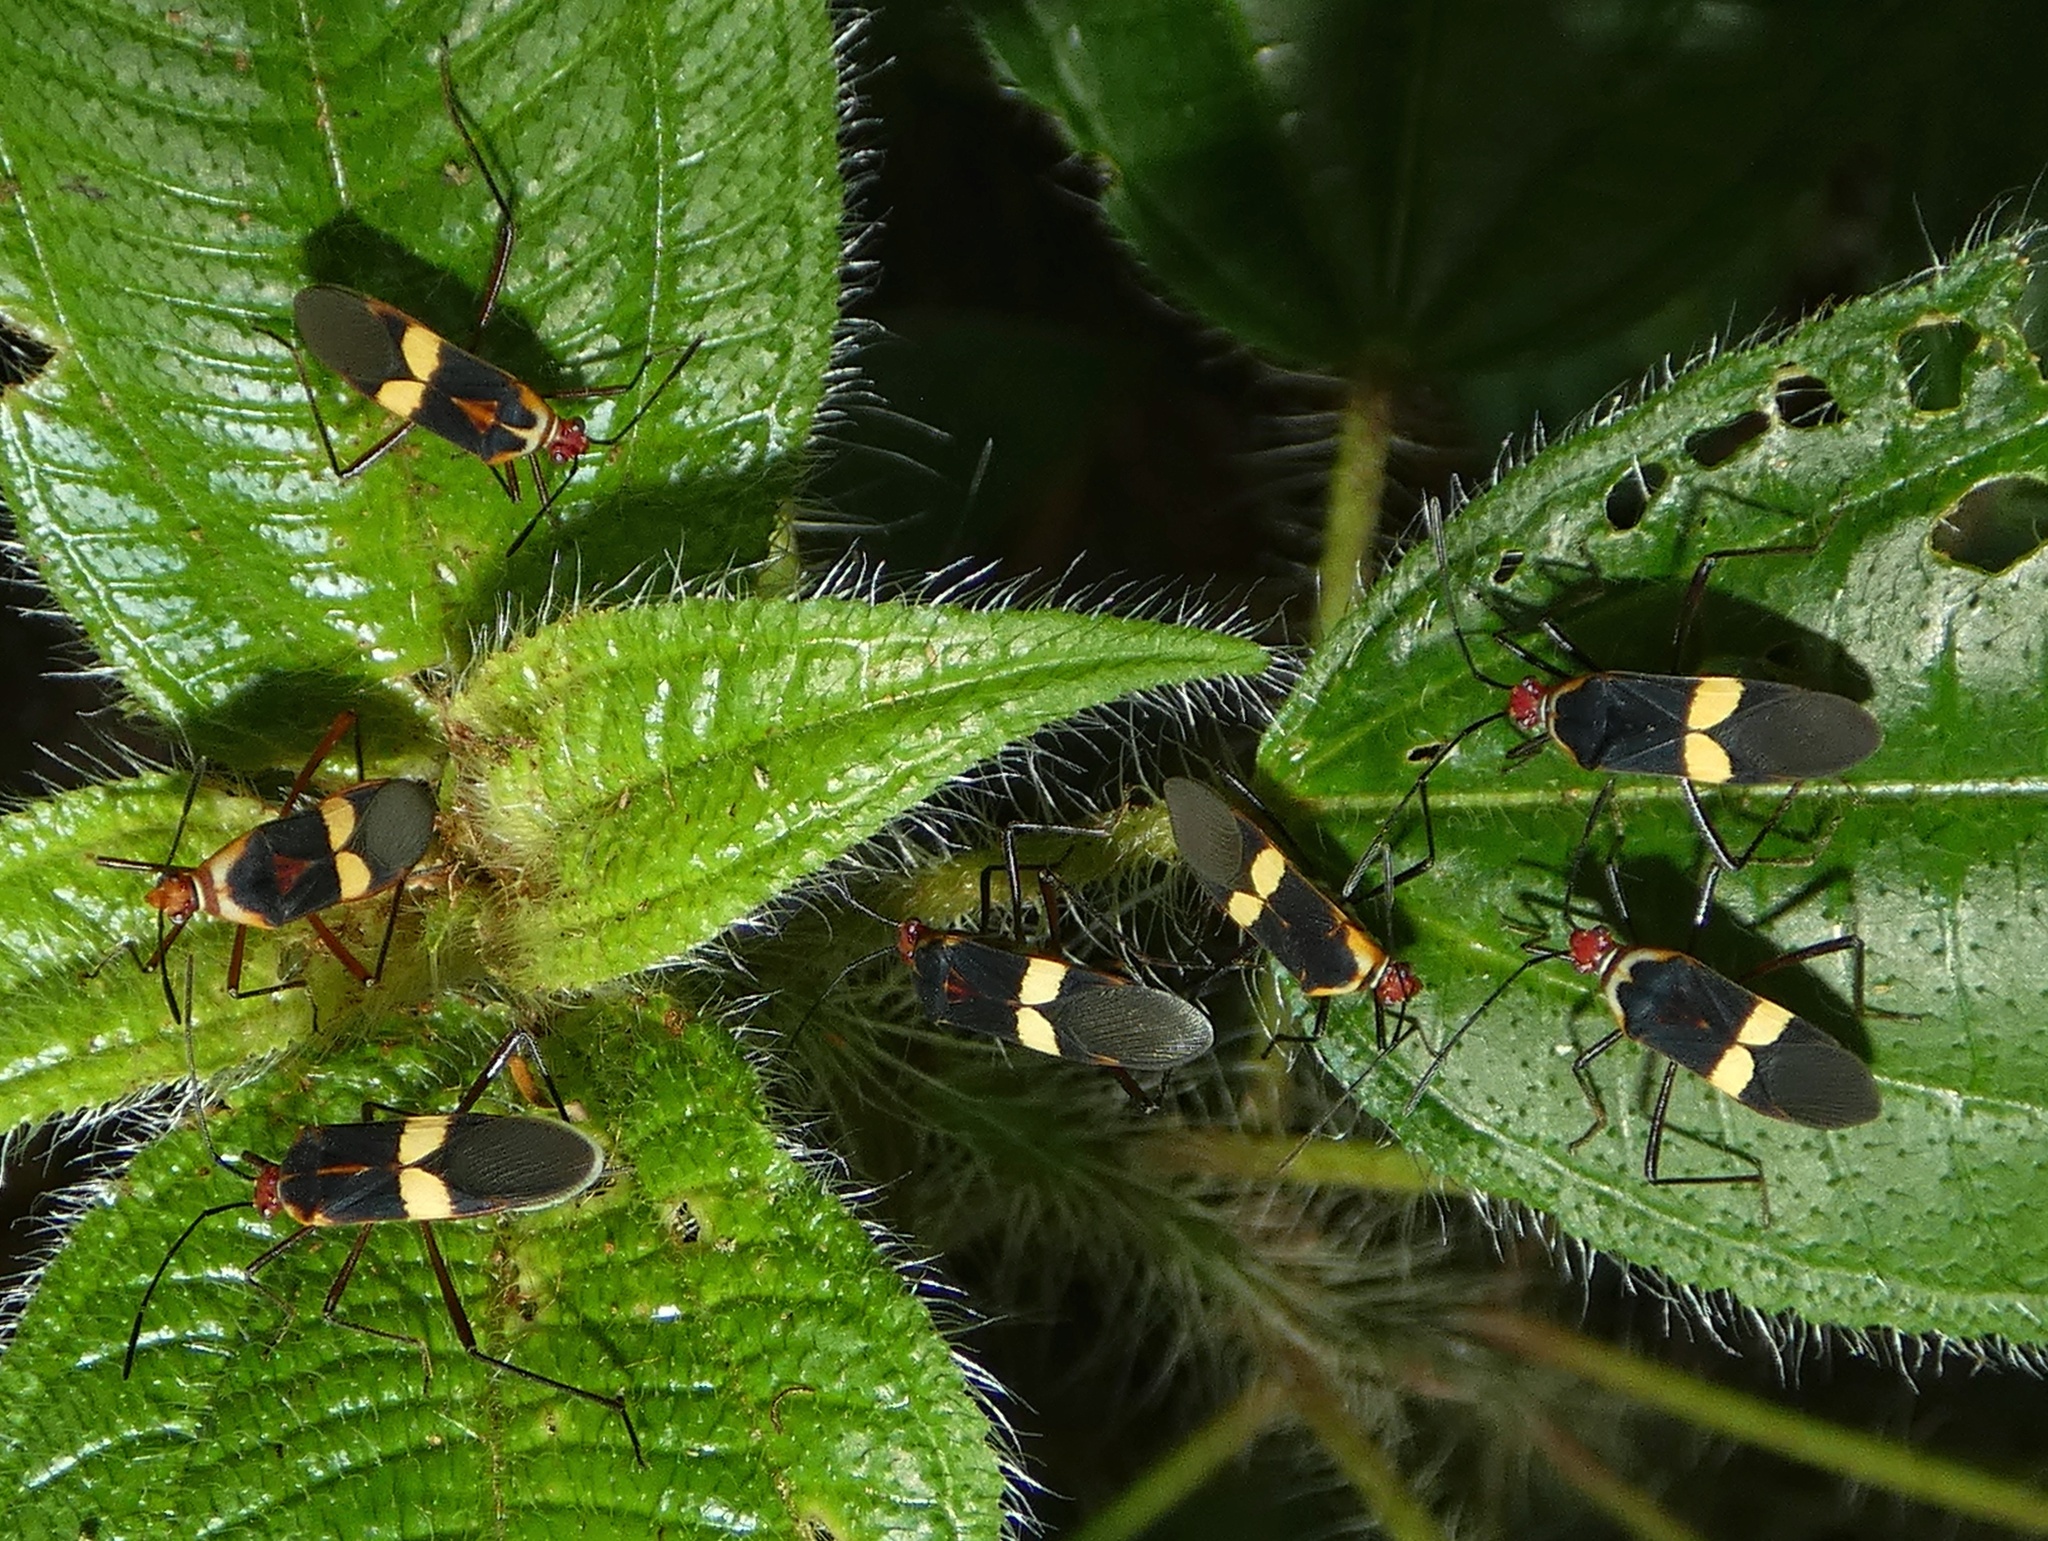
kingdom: Animalia
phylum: Arthropoda
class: Insecta
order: Hemiptera
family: Coreidae
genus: Hypselonotus
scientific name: Hypselonotus interruptus
